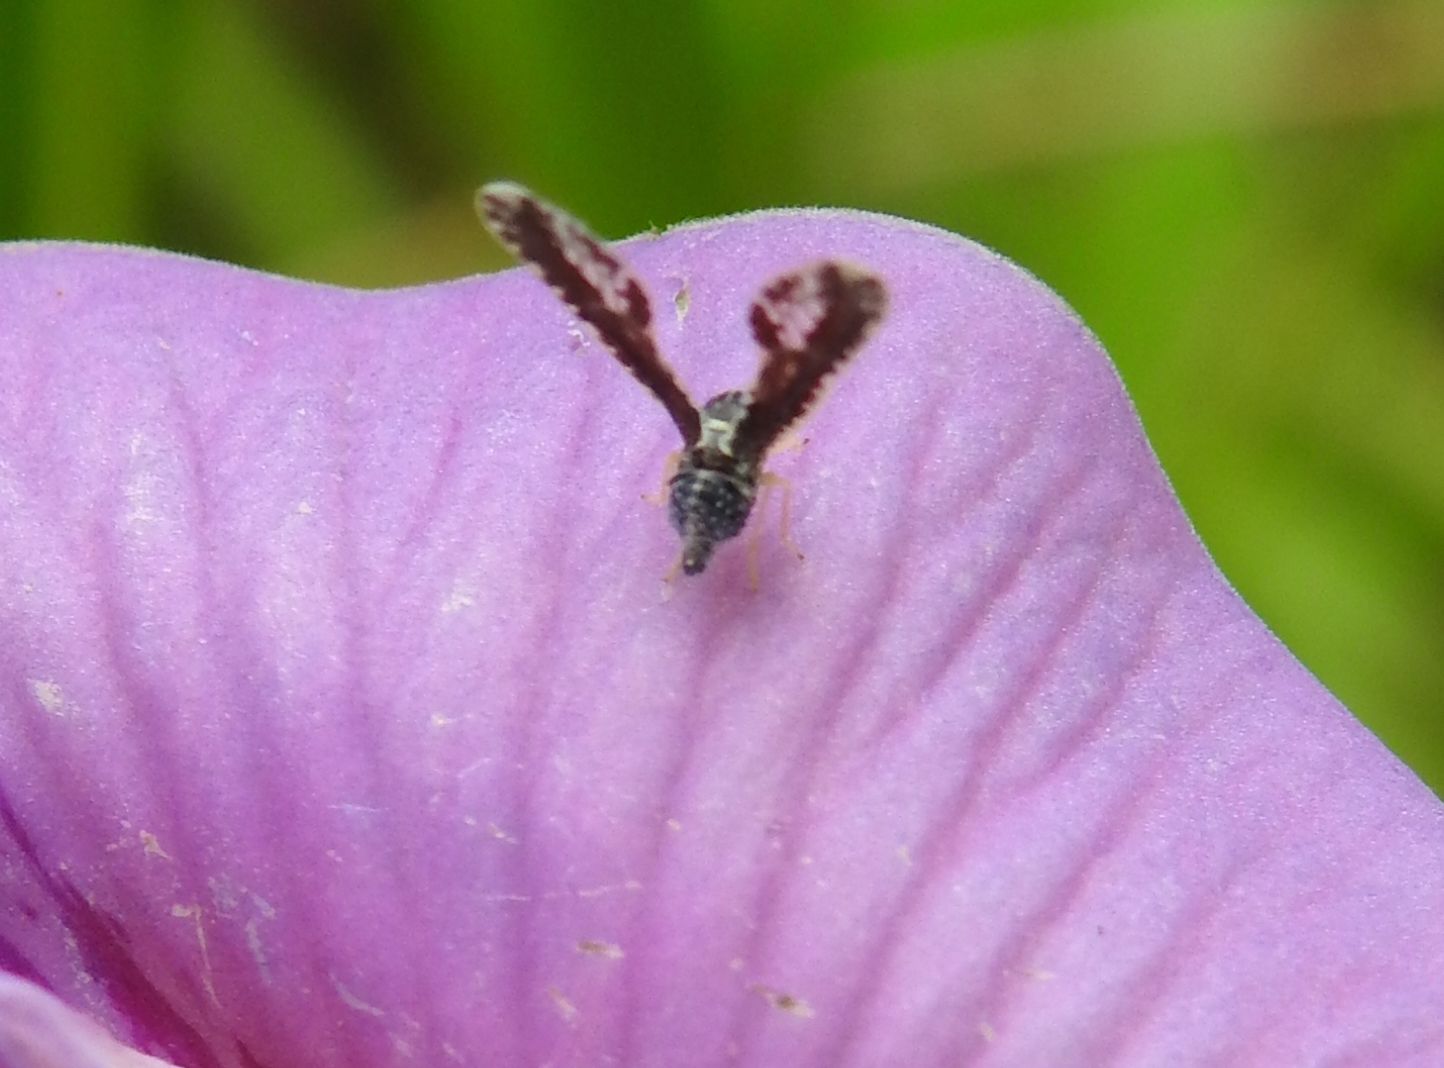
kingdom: Animalia
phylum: Arthropoda
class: Insecta
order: Hemiptera
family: Derbidae
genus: Proutista
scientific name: Proutista moesta
